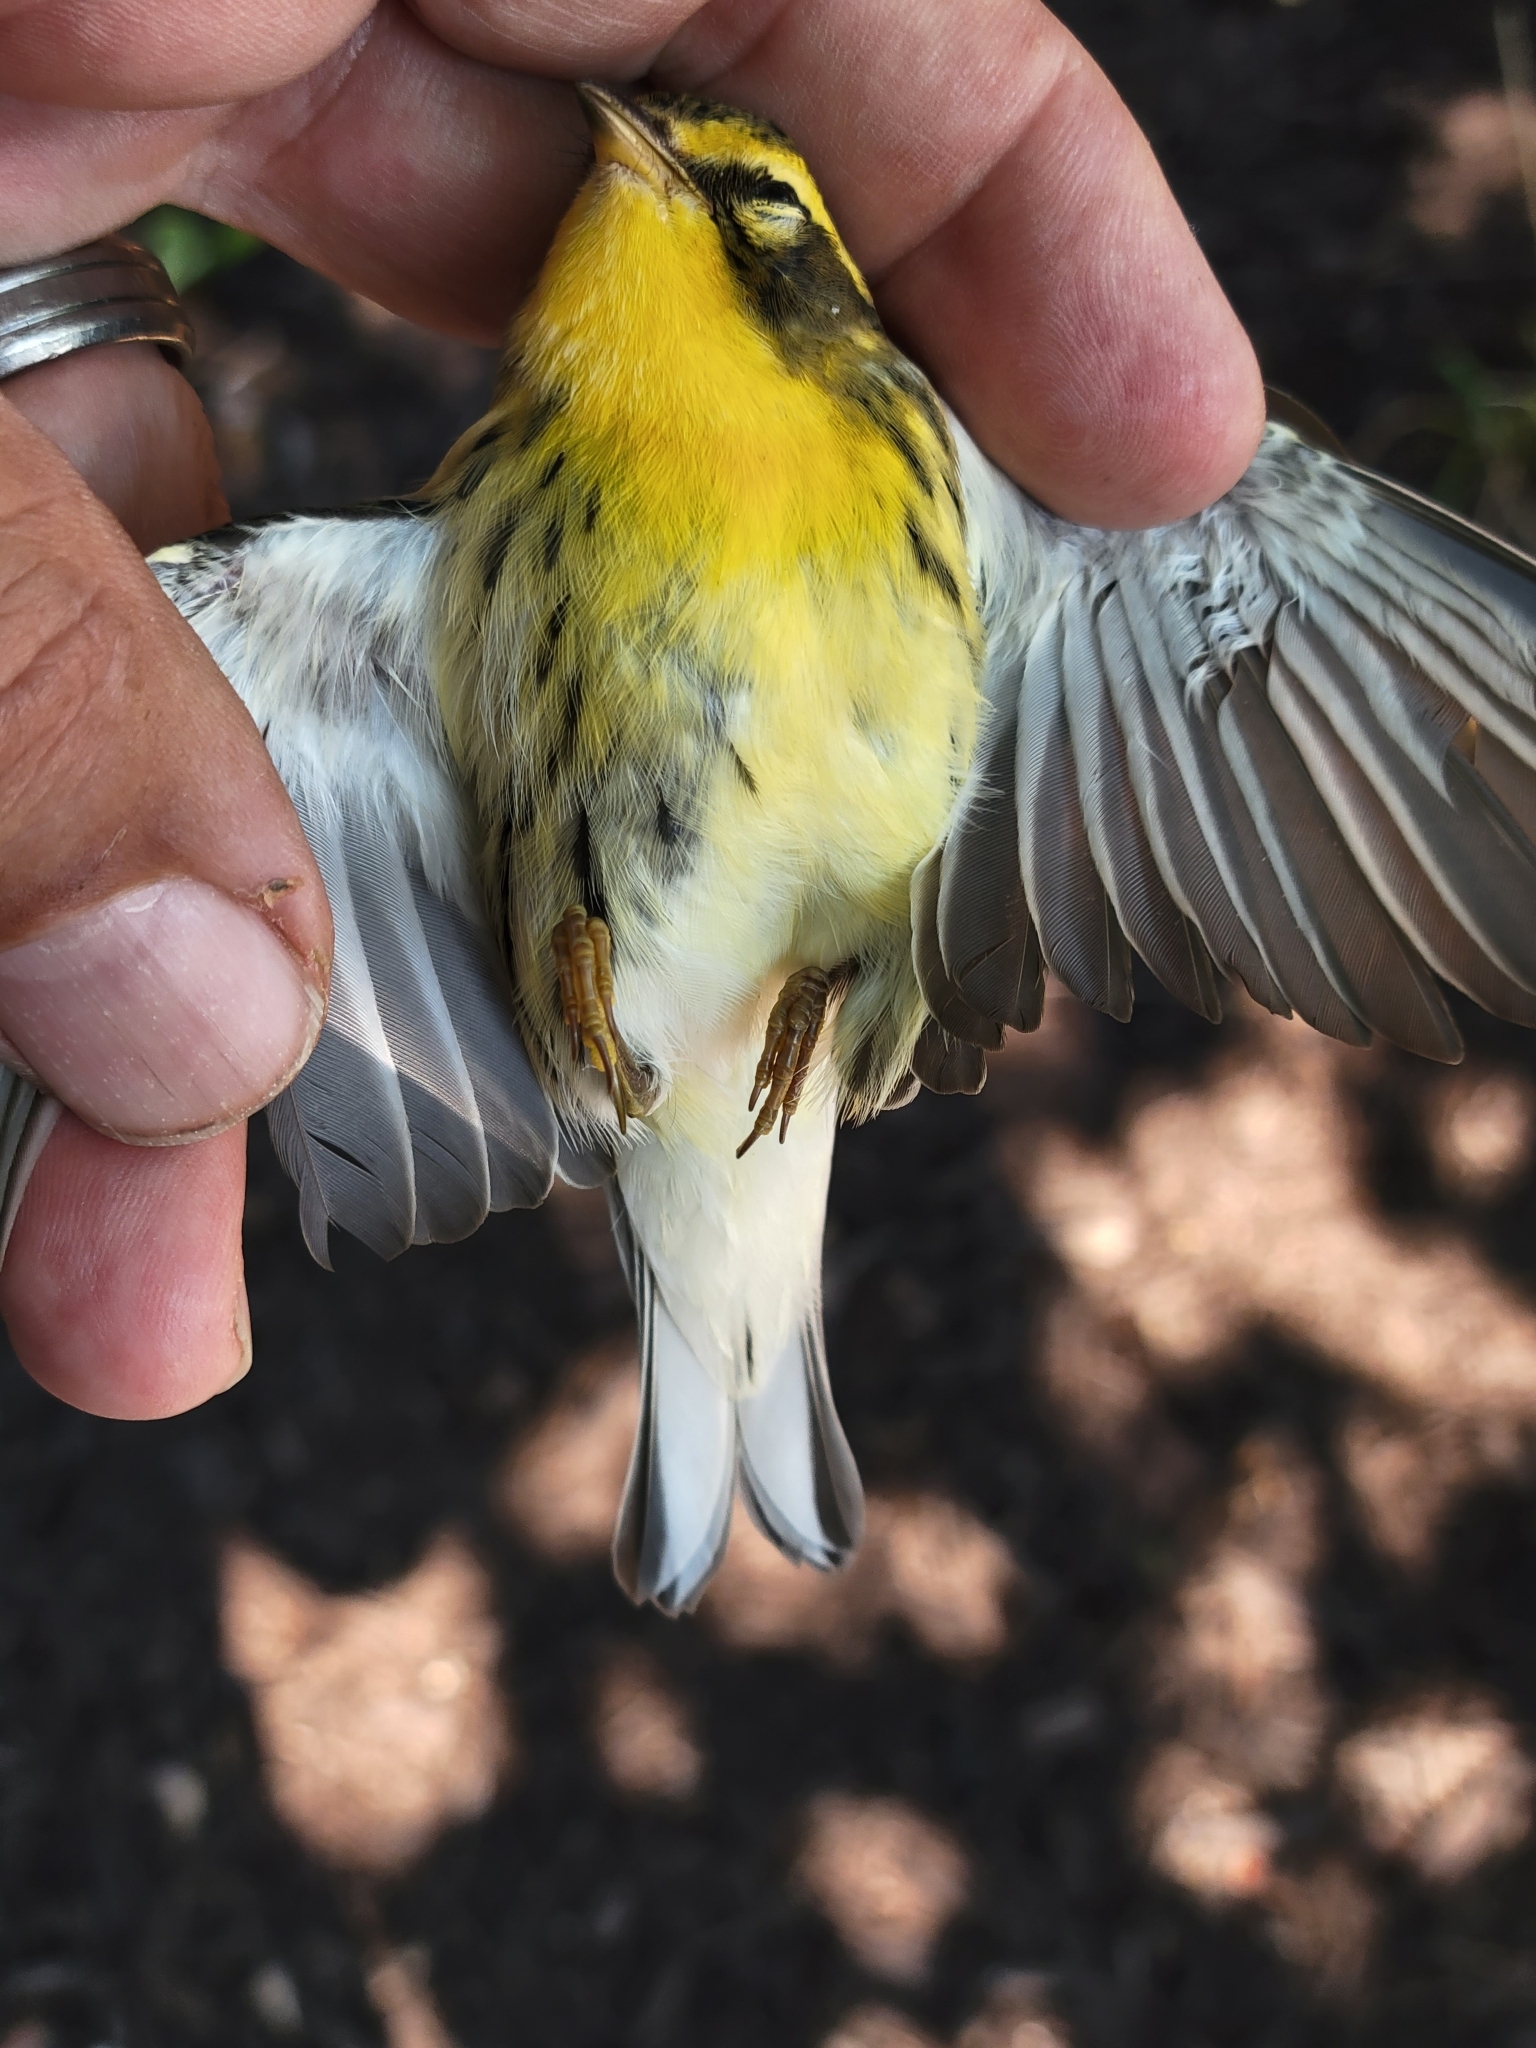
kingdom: Animalia
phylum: Chordata
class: Aves
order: Passeriformes
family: Parulidae
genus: Setophaga
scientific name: Setophaga fusca
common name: Blackburnian warbler
